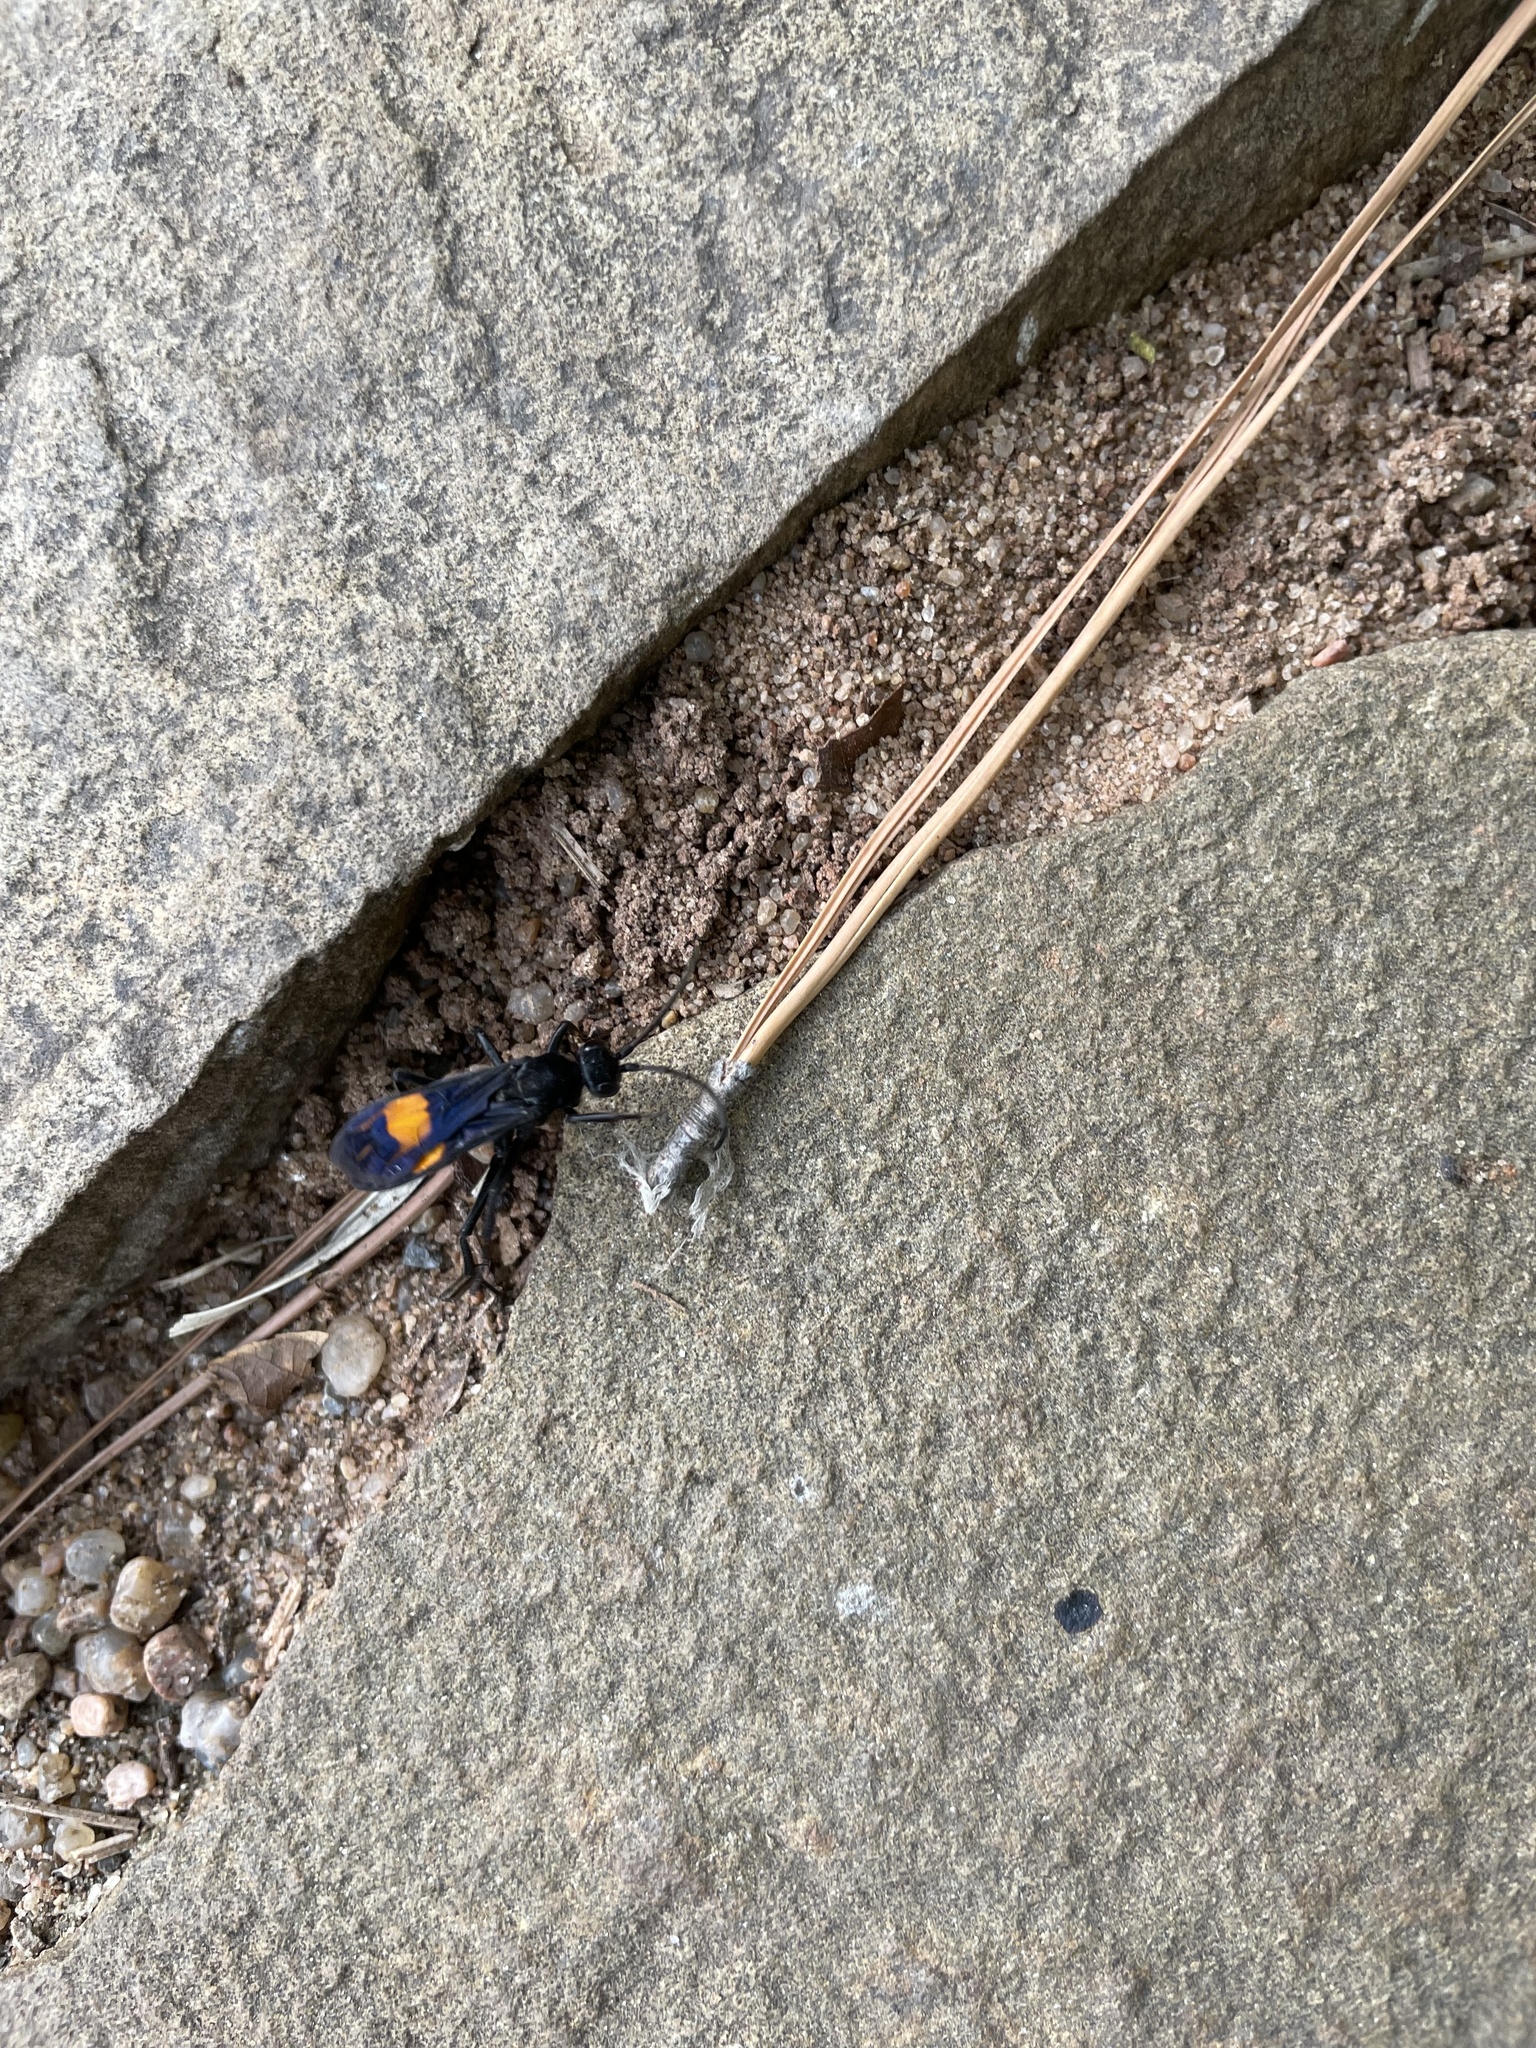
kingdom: Animalia
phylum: Arthropoda
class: Insecta
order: Hymenoptera
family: Pompilidae
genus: Chirodamus
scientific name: Chirodamus maculipennis
